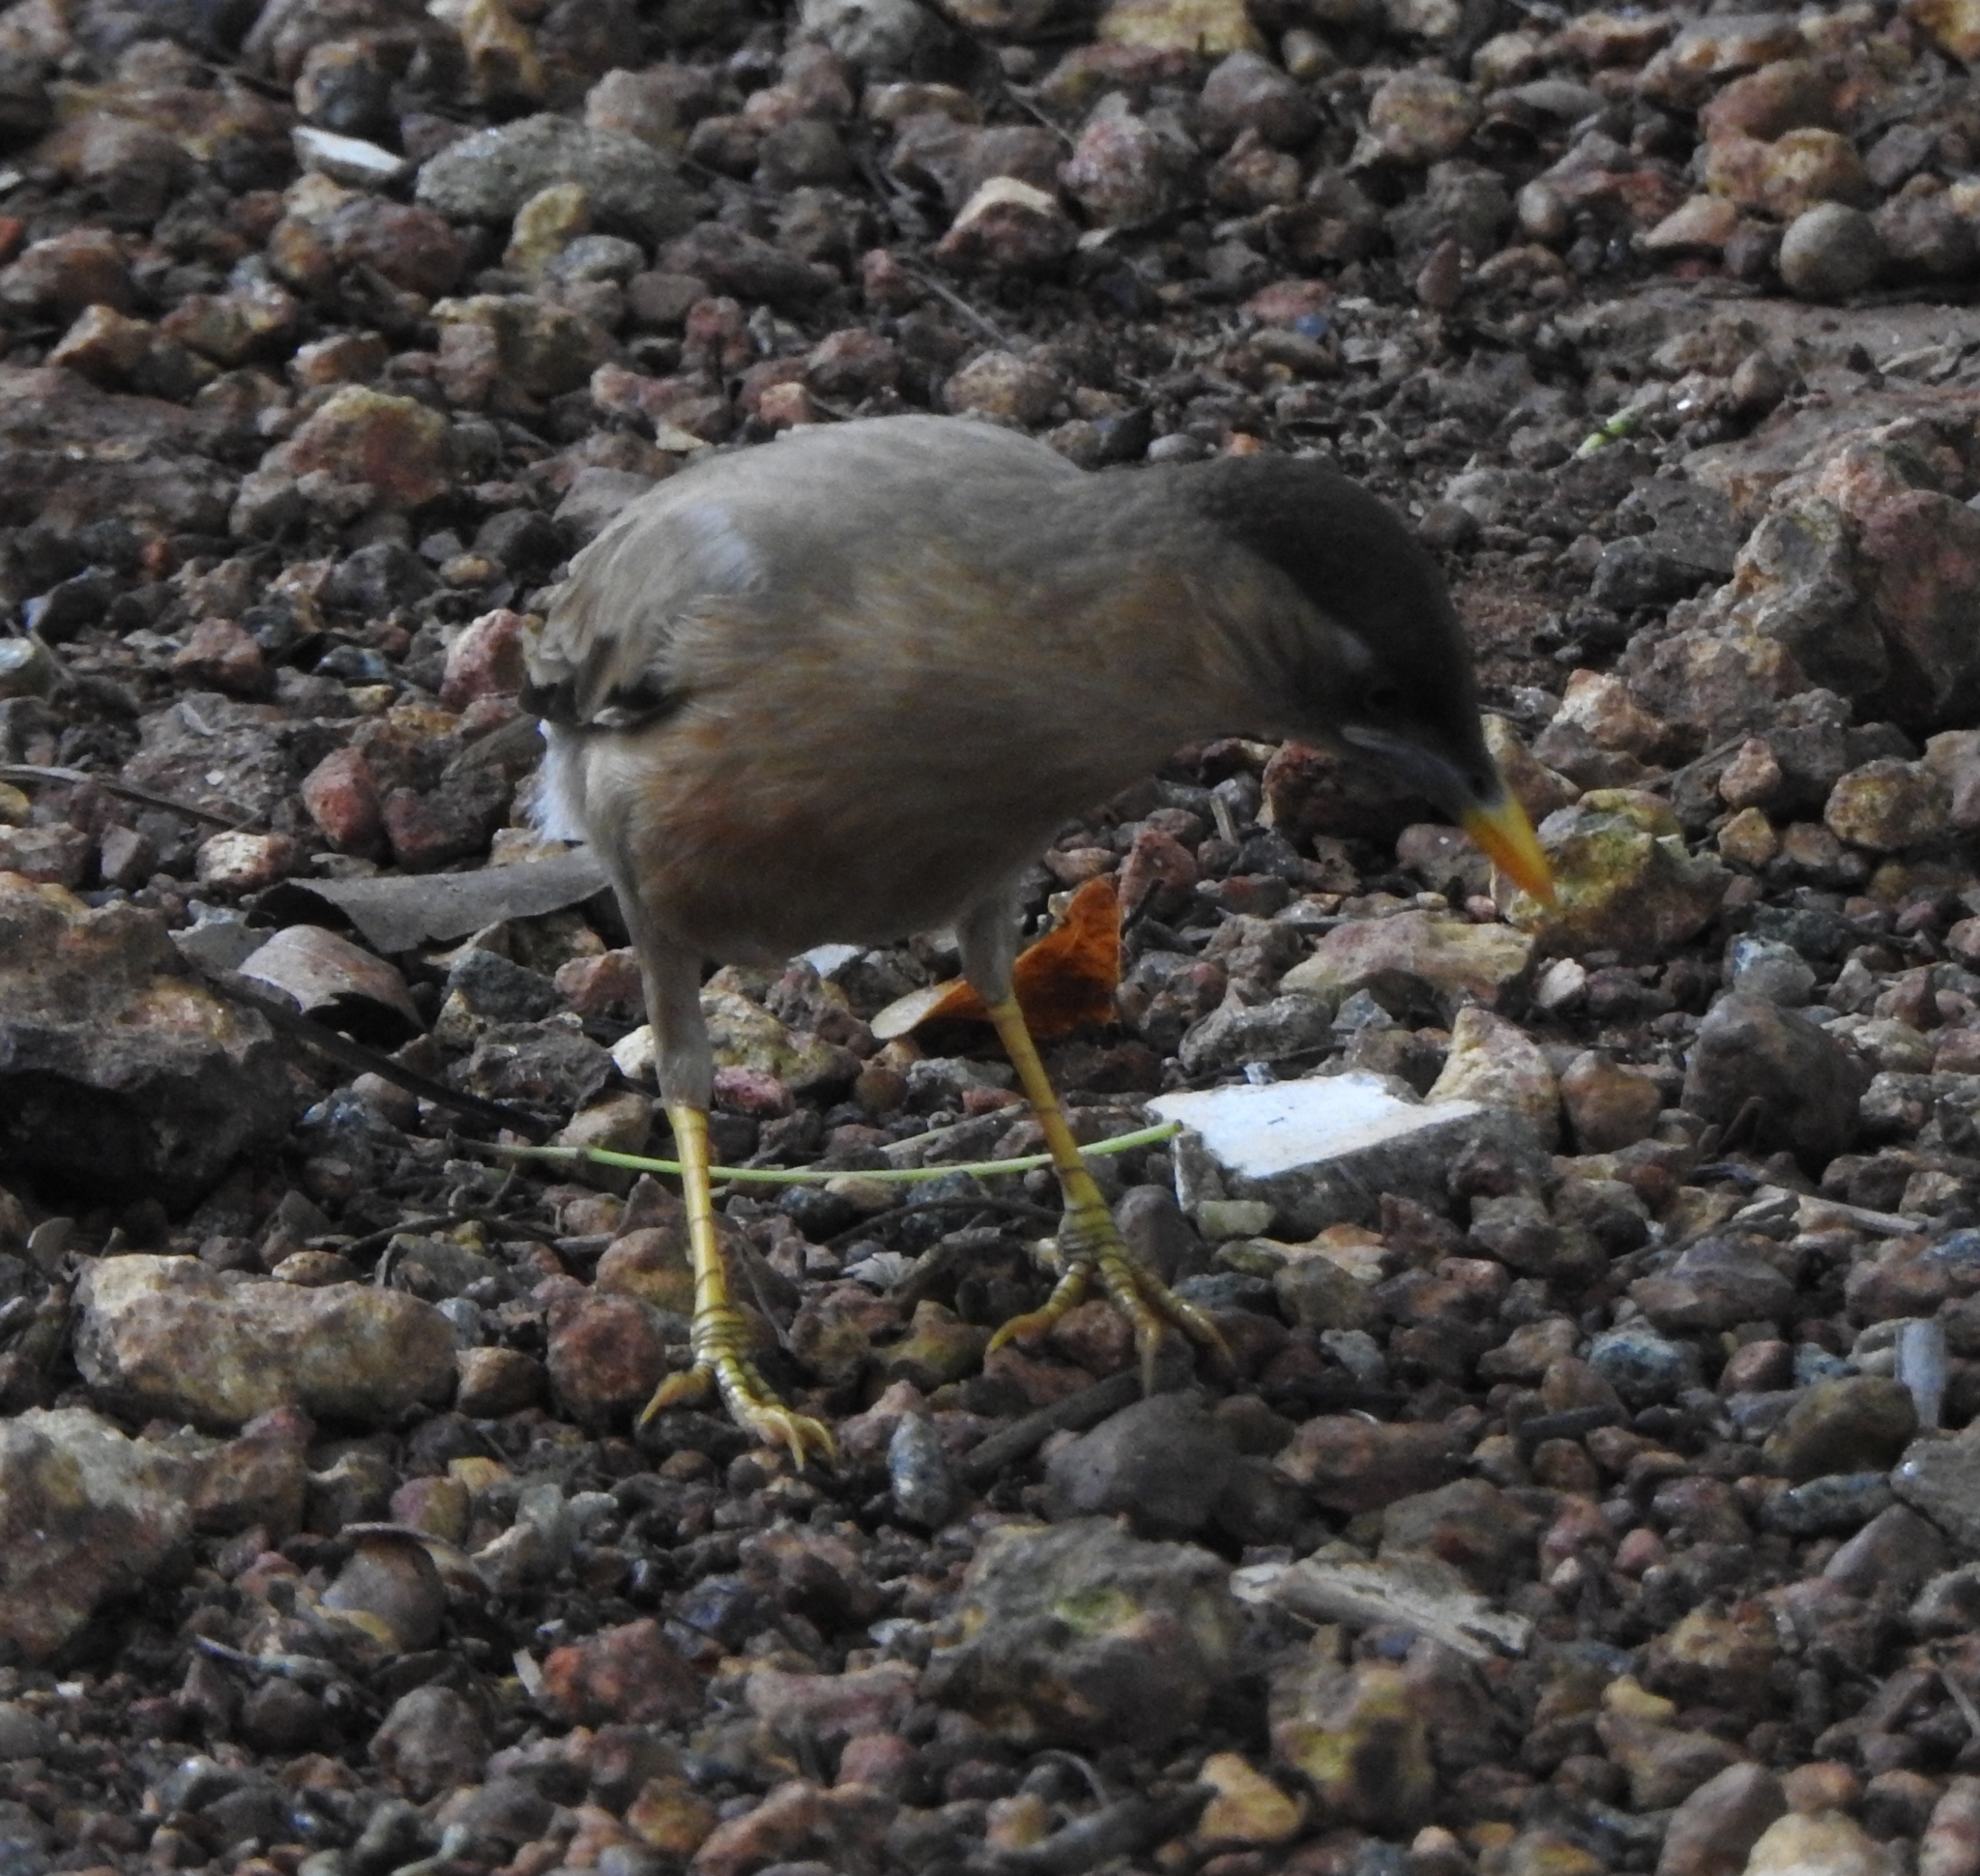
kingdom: Animalia
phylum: Chordata
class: Aves
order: Passeriformes
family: Sturnidae
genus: Sturnia
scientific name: Sturnia pagodarum
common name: Brahminy starling
